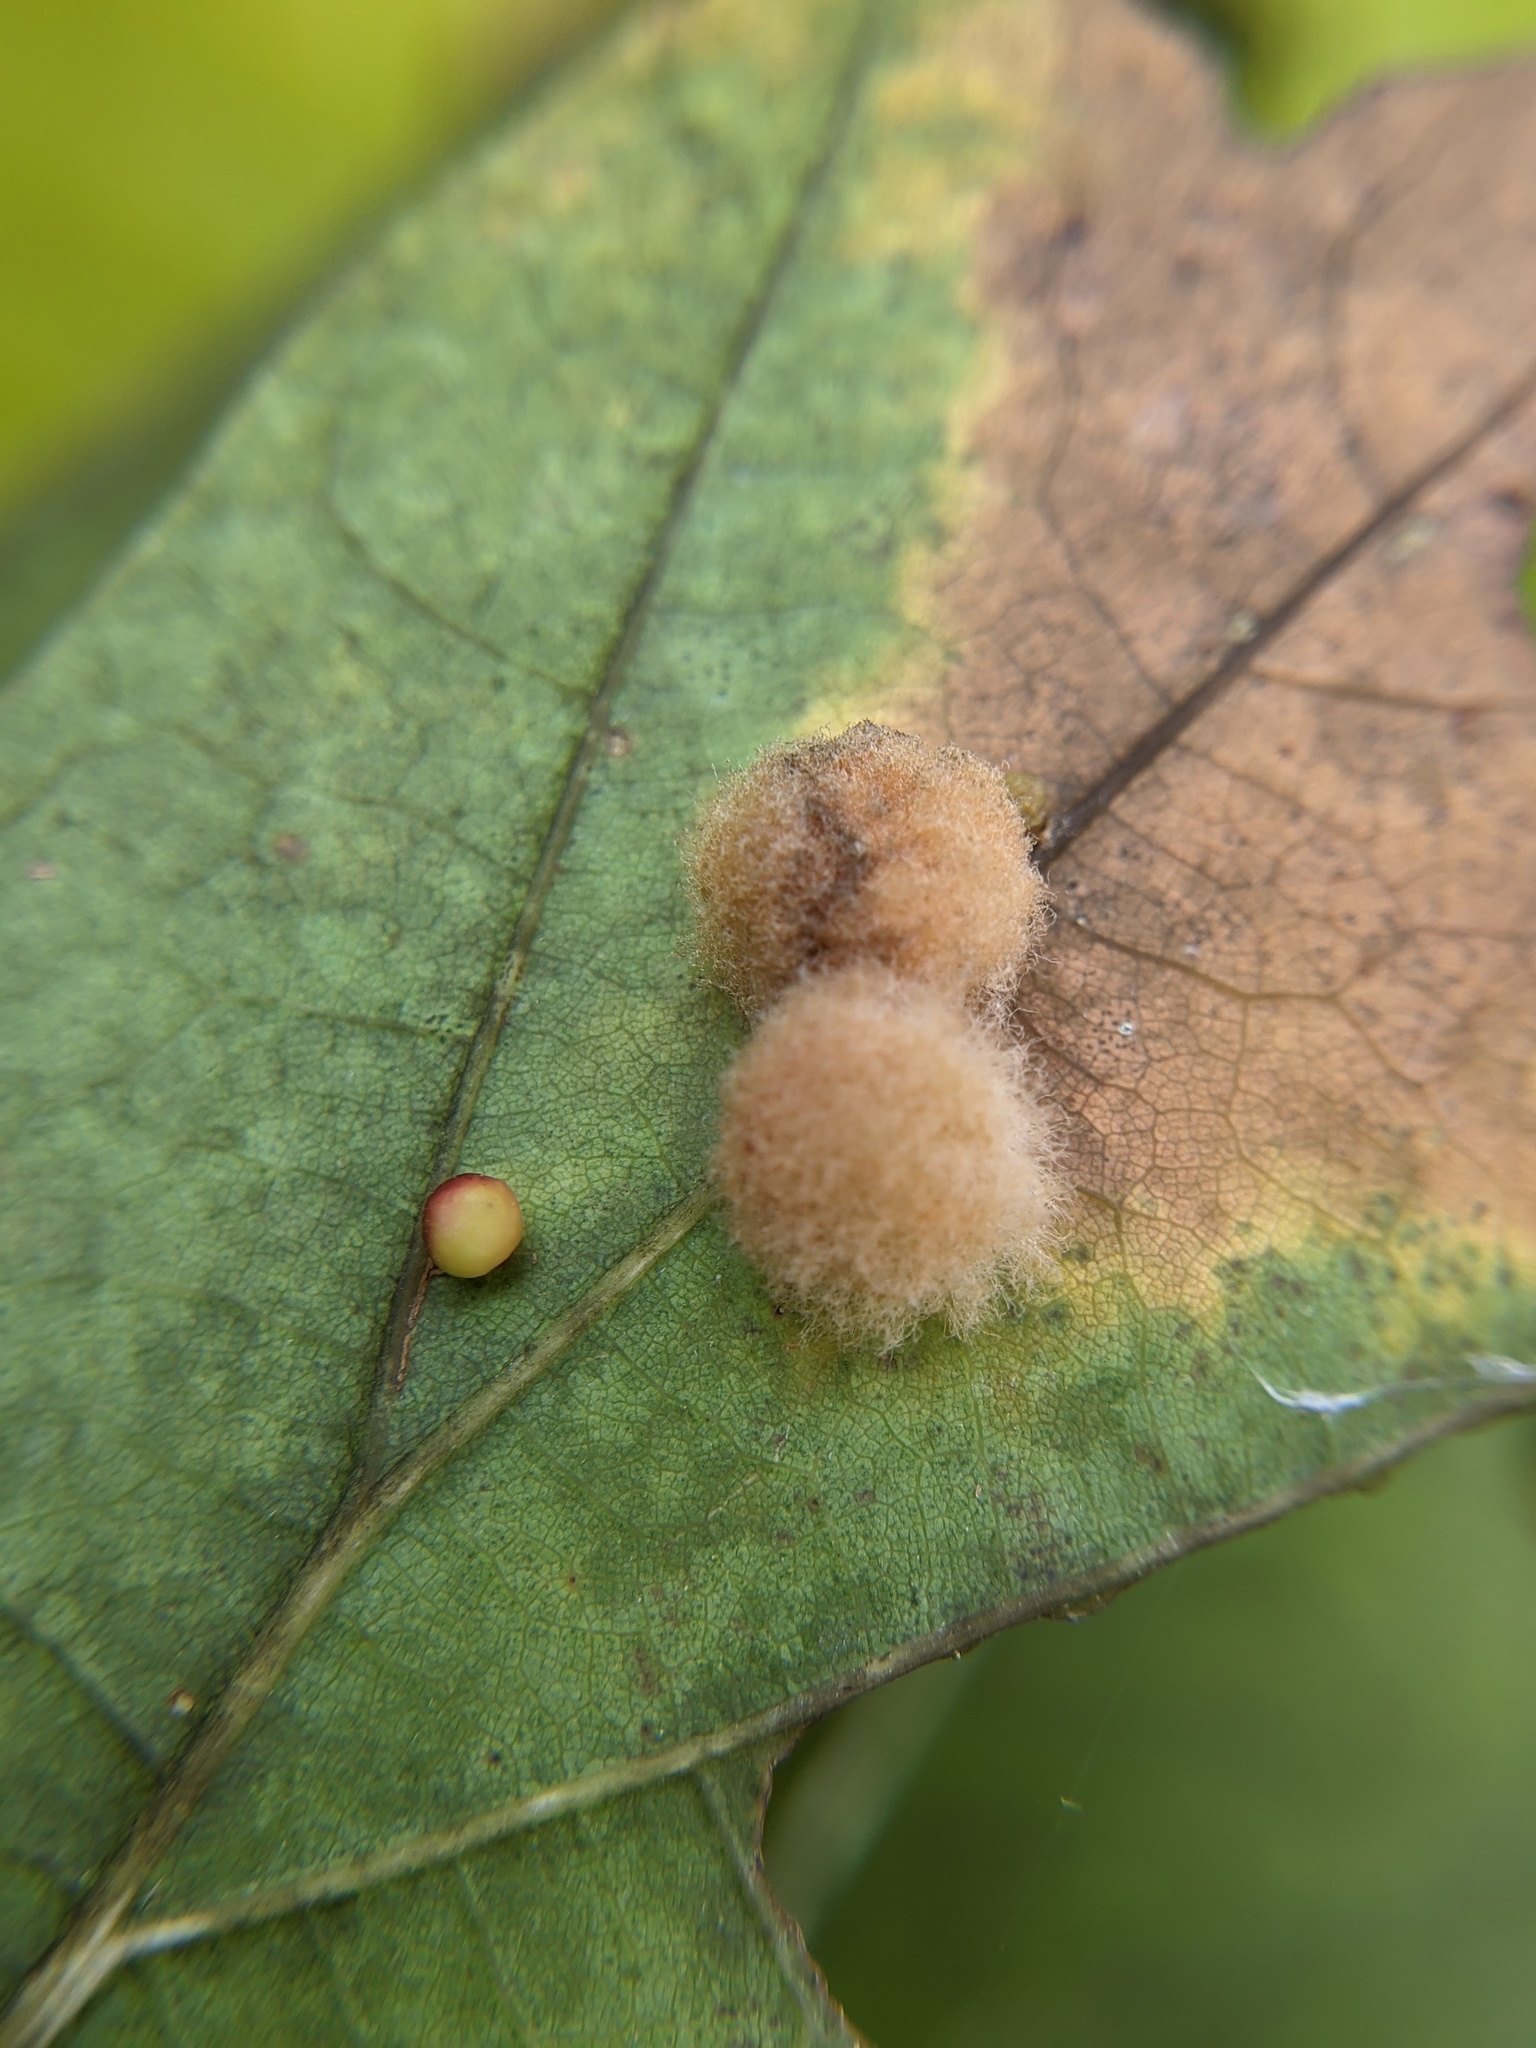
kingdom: Animalia
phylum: Arthropoda
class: Insecta
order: Hymenoptera
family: Cynipidae
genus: Callirhytis
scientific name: Callirhytis
